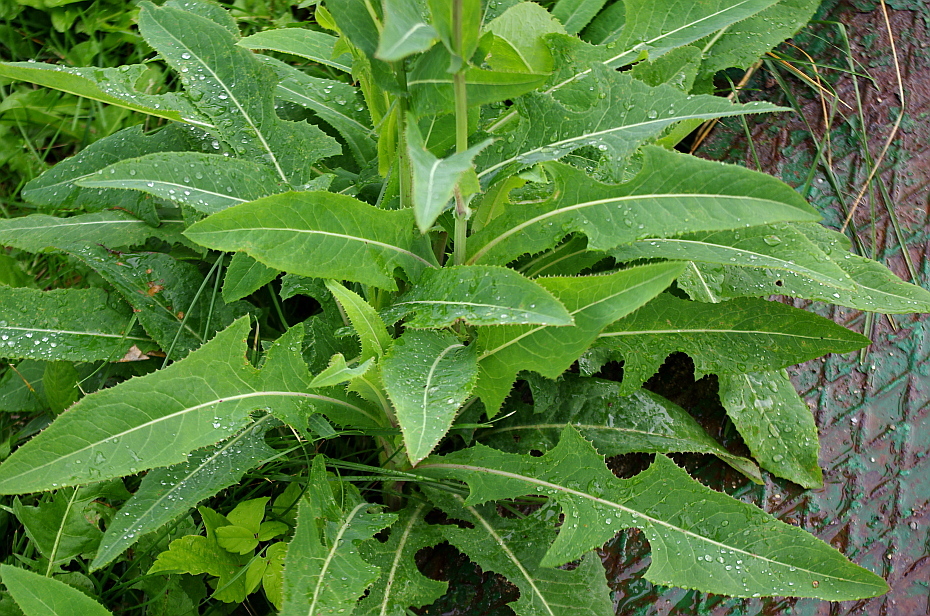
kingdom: Plantae
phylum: Tracheophyta
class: Magnoliopsida
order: Asterales
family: Asteraceae
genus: Sonchus
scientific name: Sonchus arvensis
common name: Perennial sow-thistle
